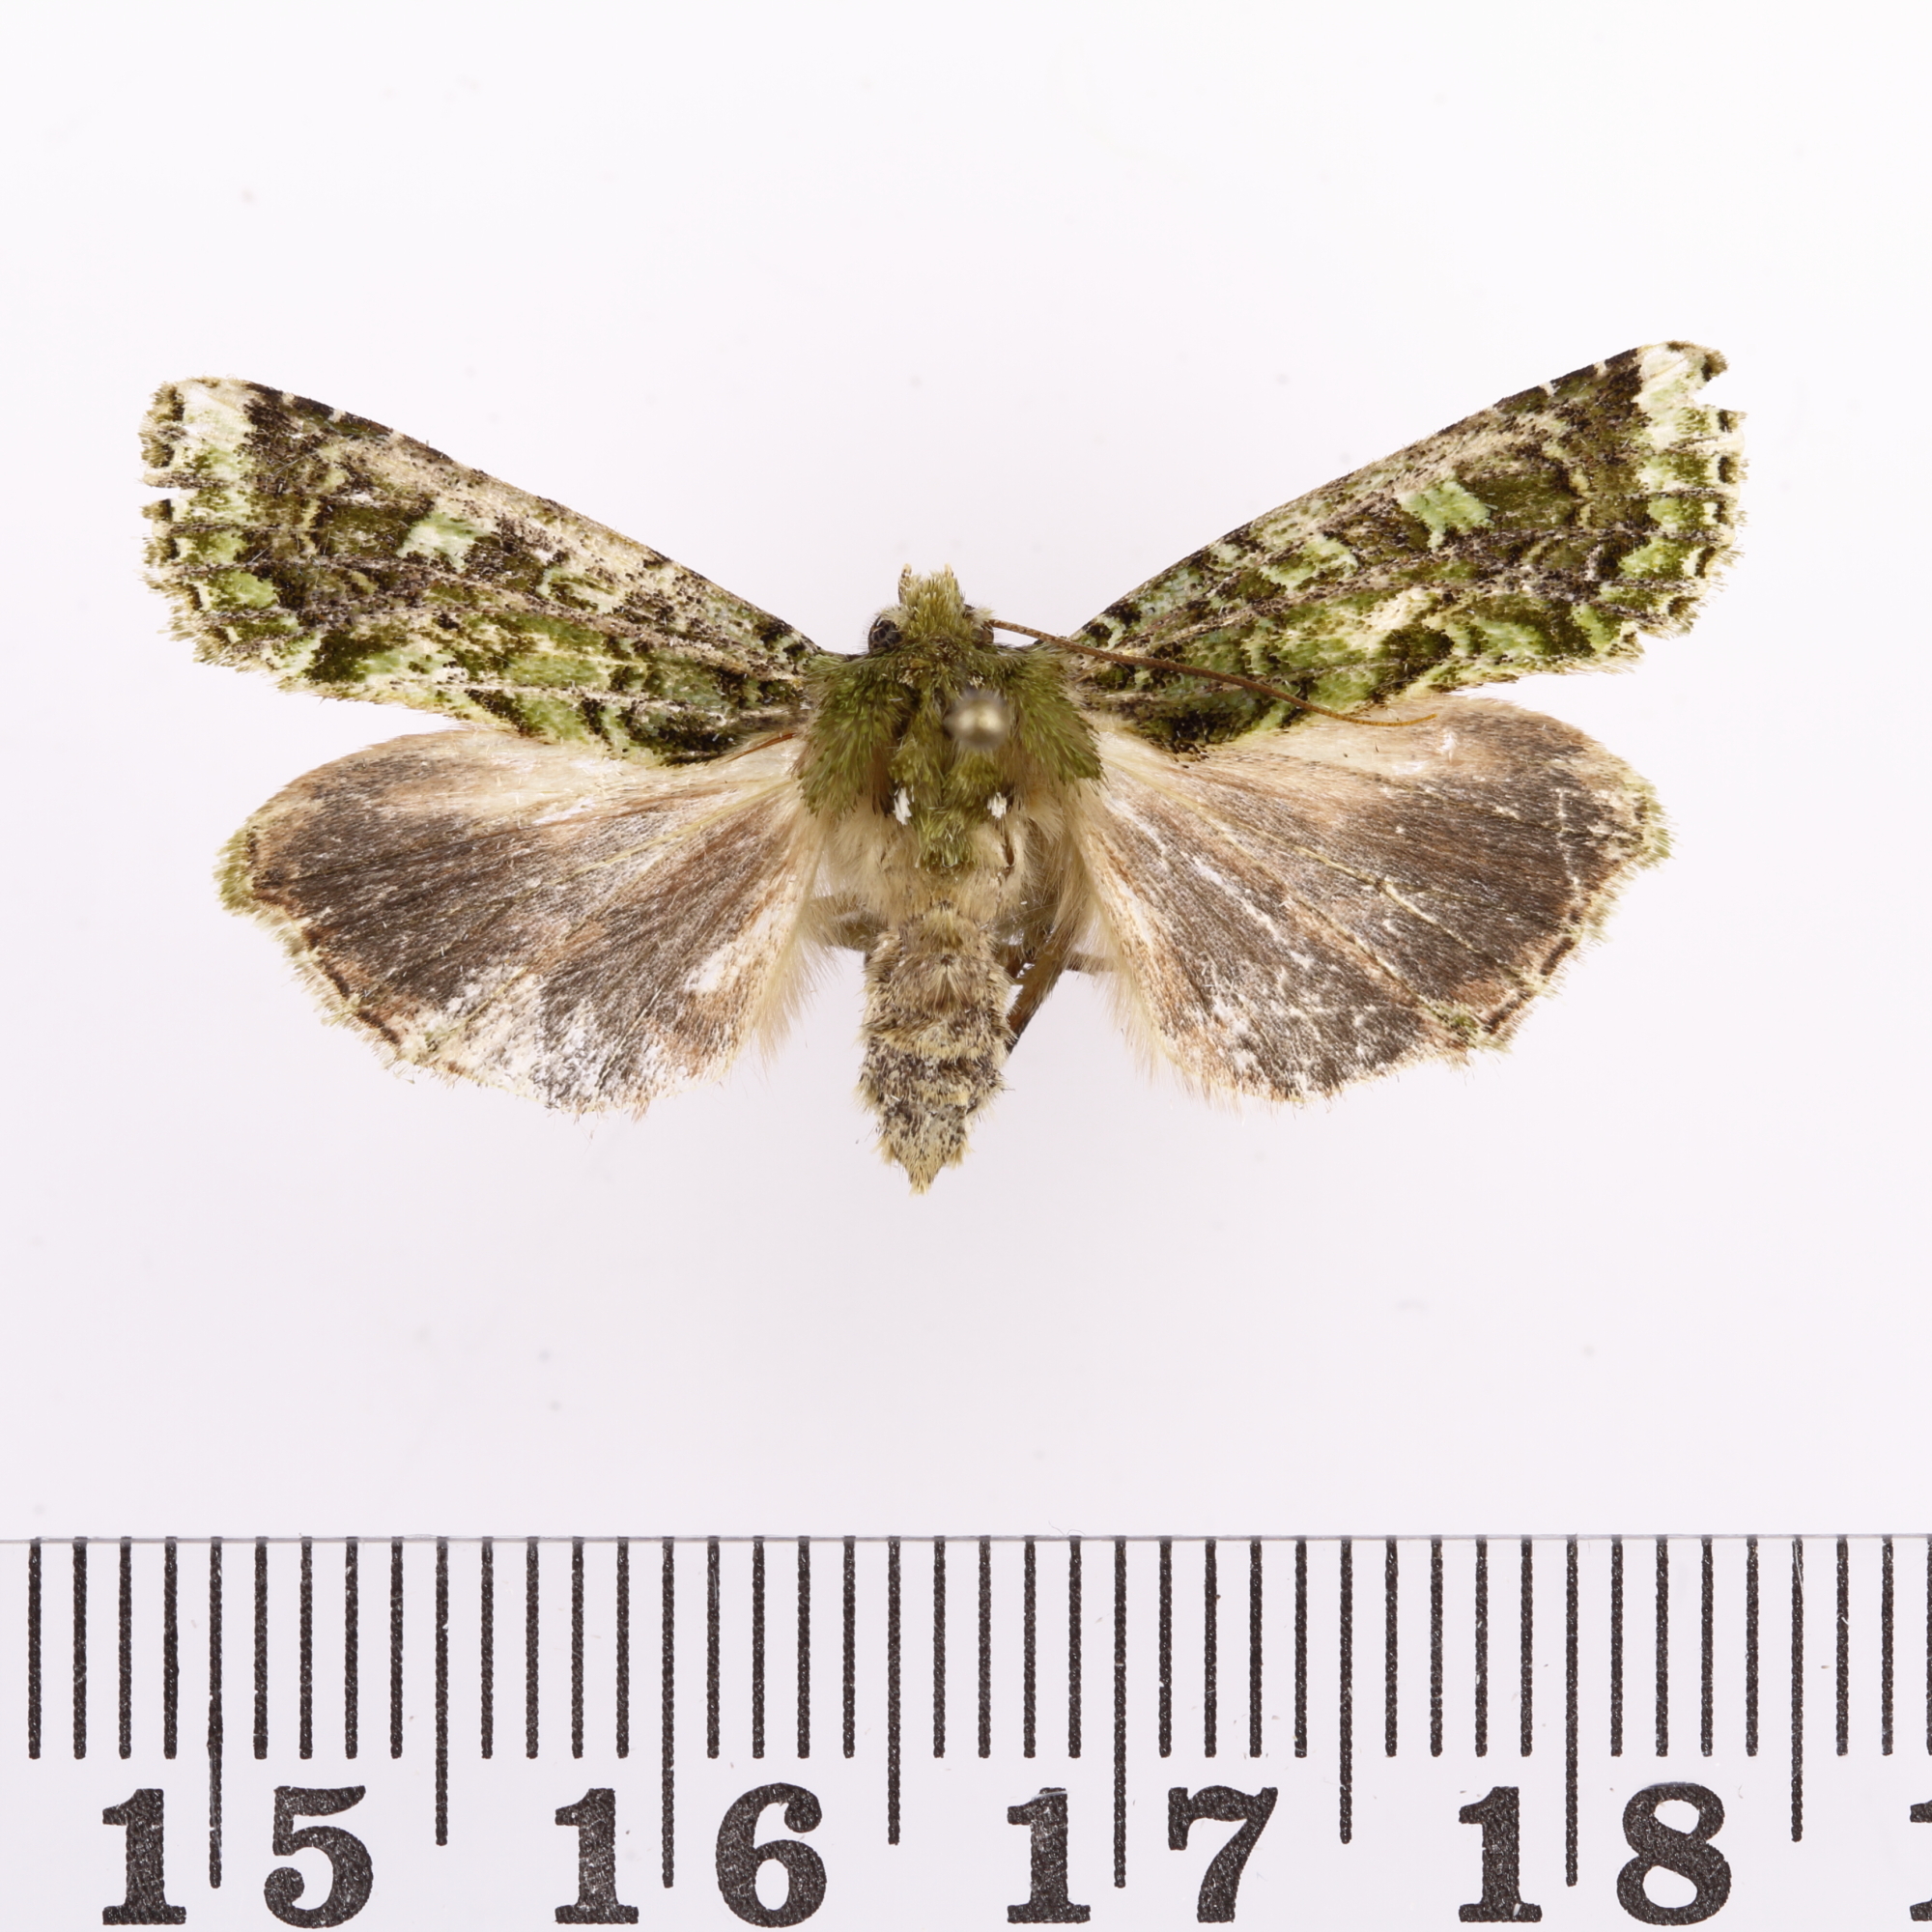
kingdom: Animalia
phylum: Arthropoda
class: Insecta
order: Lepidoptera
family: Noctuidae
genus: Feredayia
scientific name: Feredayia grammosa
